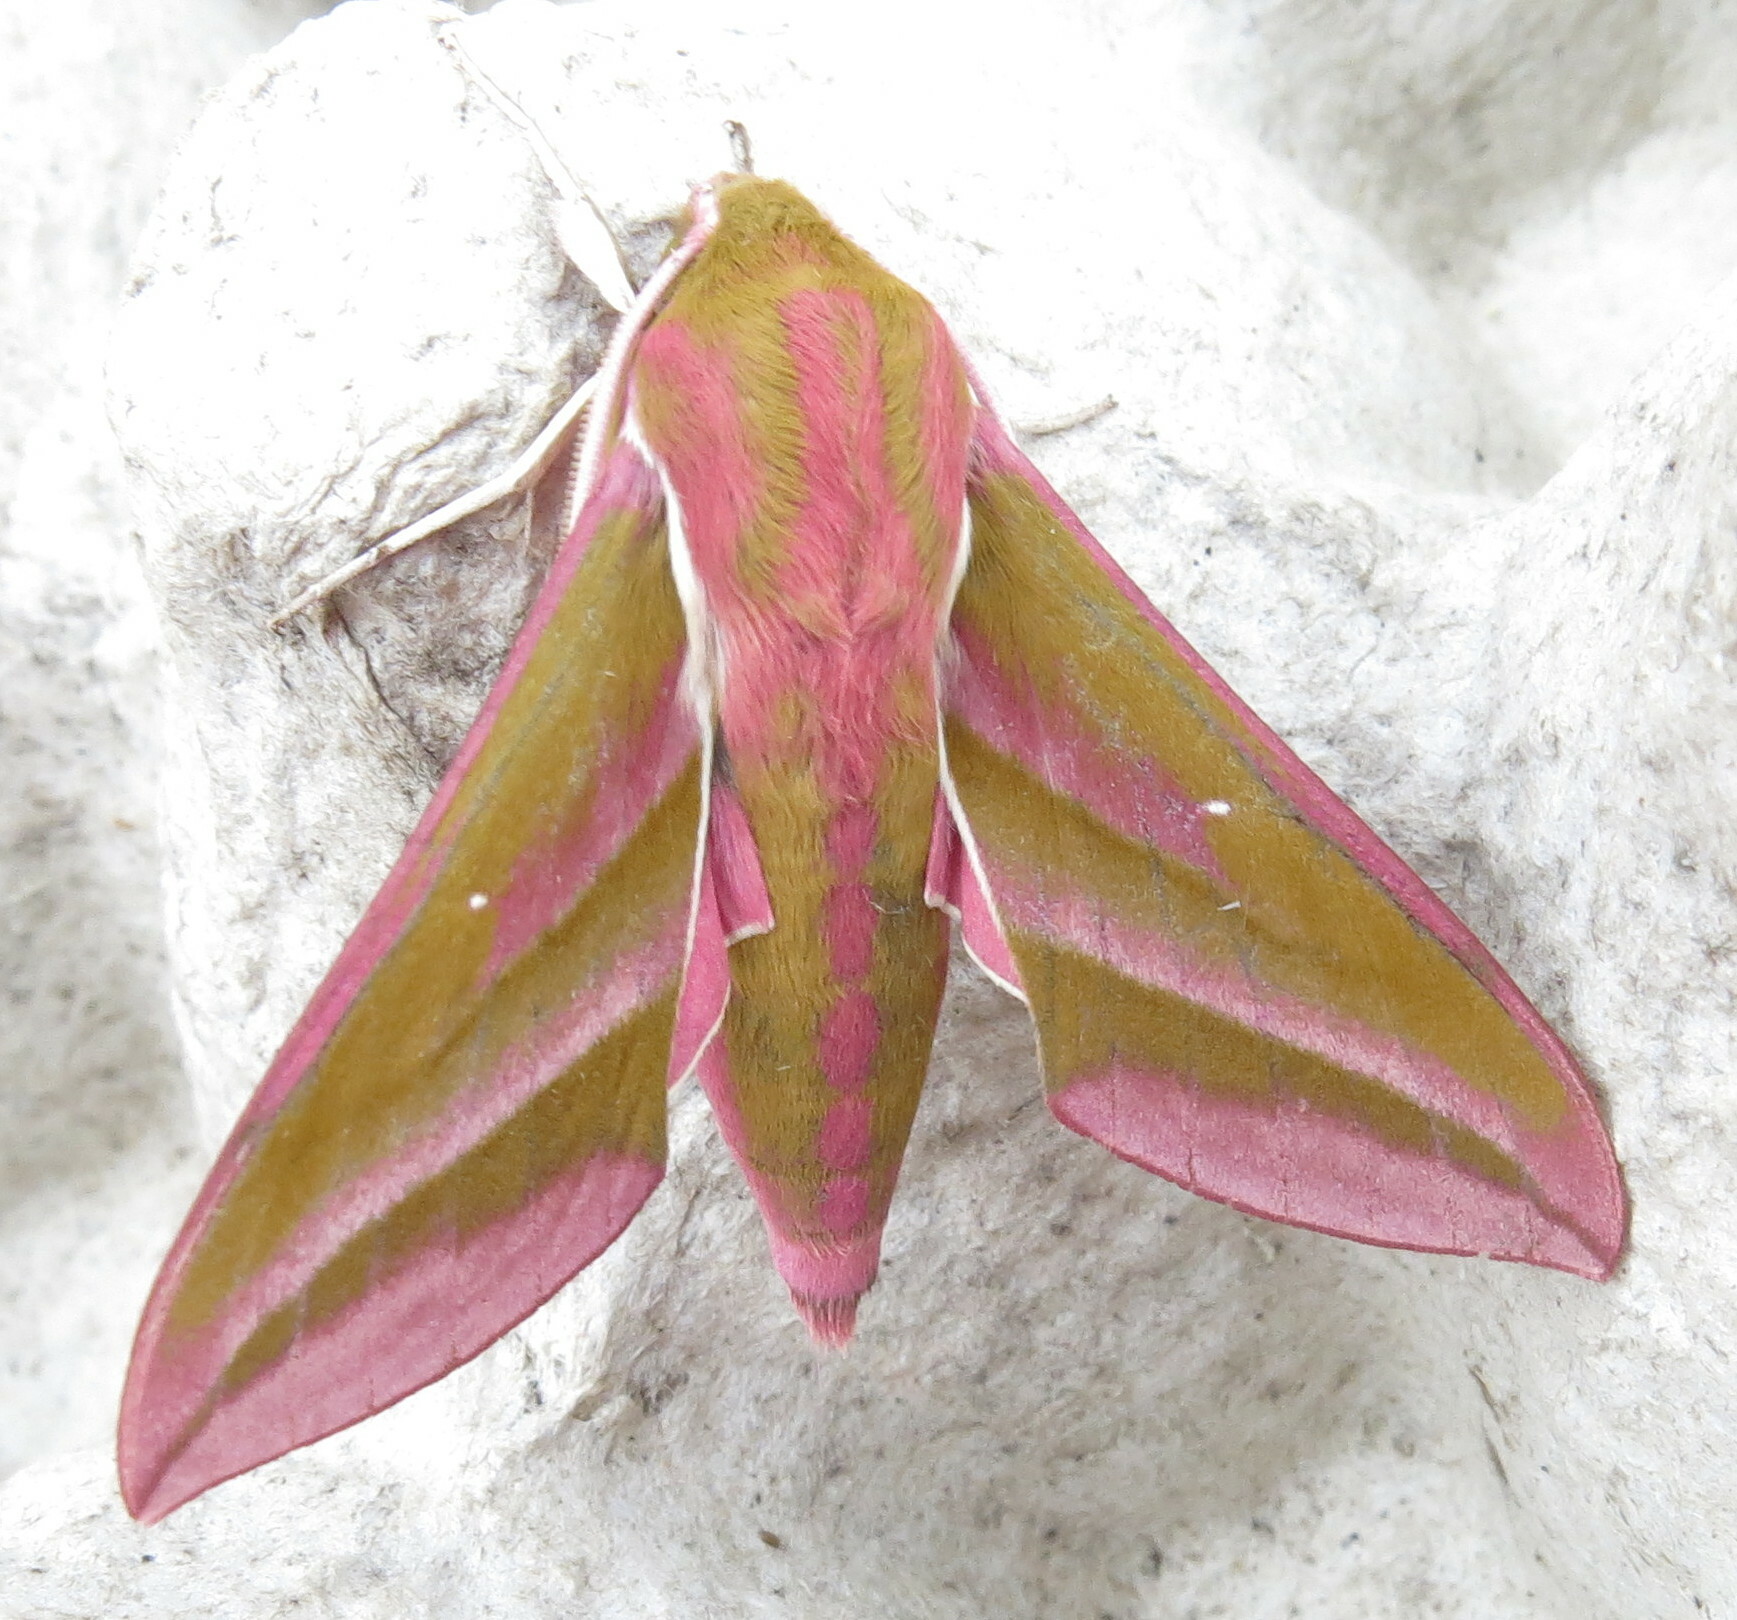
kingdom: Animalia
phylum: Arthropoda
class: Insecta
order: Lepidoptera
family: Sphingidae
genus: Deilephila
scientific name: Deilephila elpenor
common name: Elephant hawk-moth
